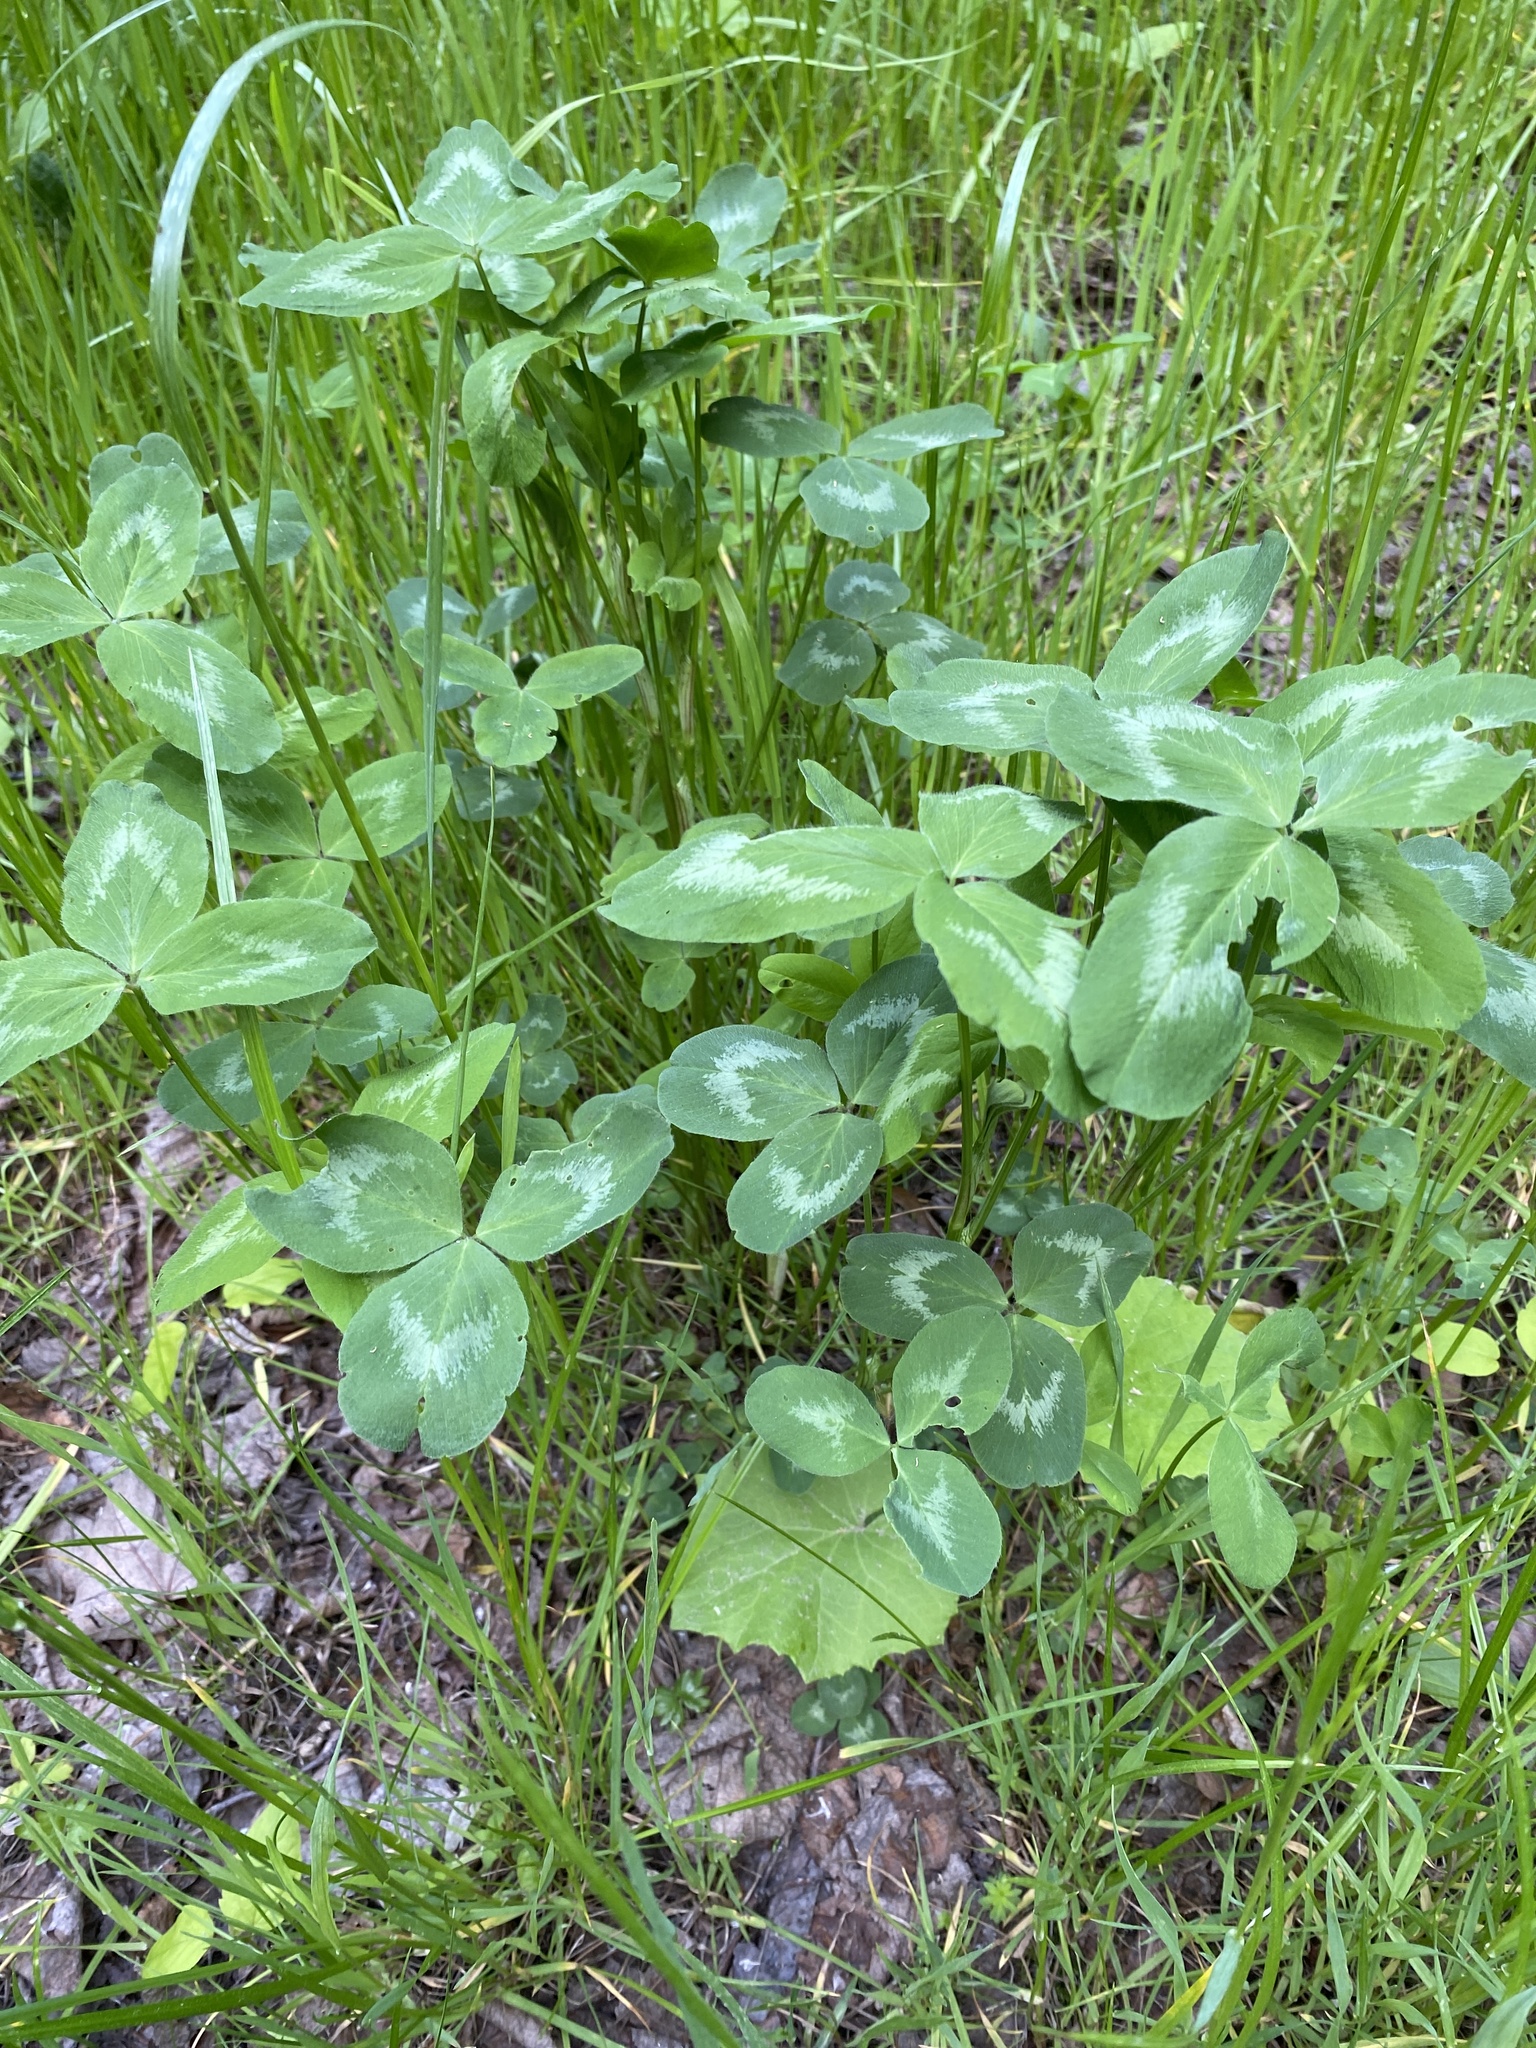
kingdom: Plantae
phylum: Tracheophyta
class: Magnoliopsida
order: Fabales
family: Fabaceae
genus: Trifolium
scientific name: Trifolium pratense
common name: Red clover
